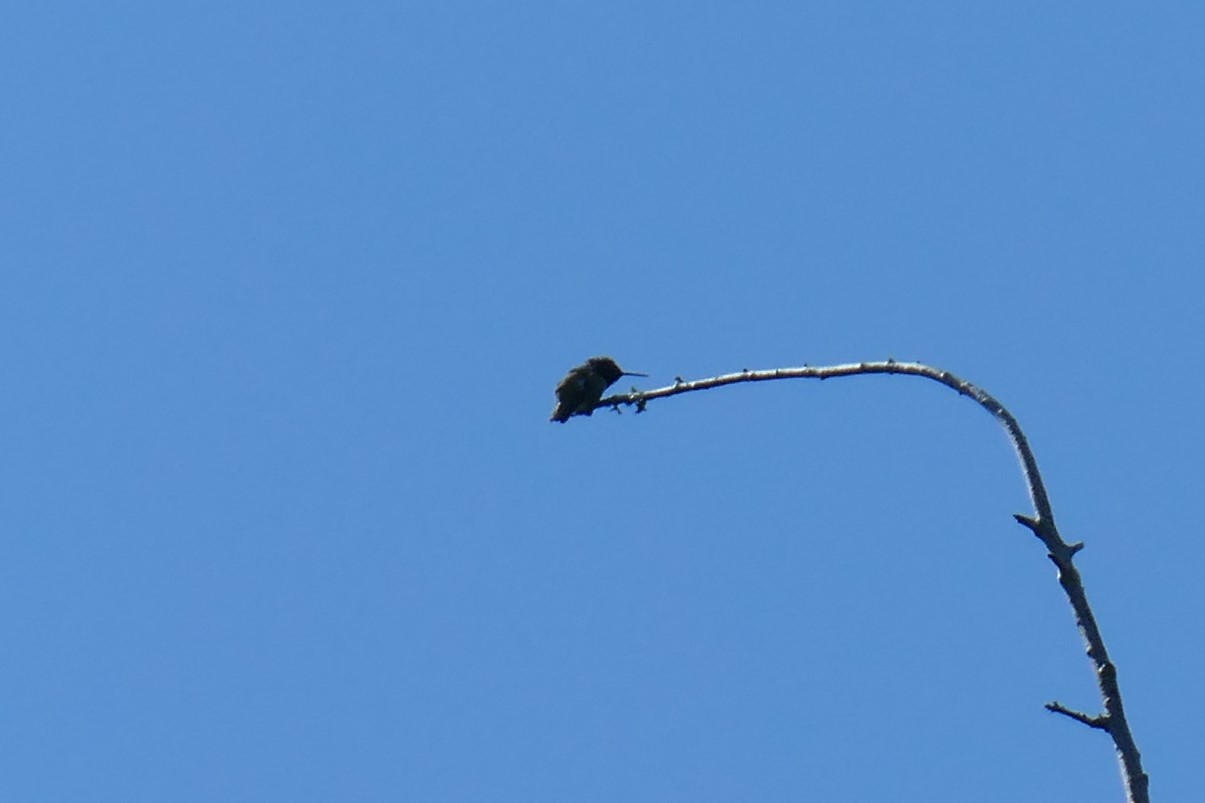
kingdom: Animalia
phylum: Chordata
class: Aves
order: Apodiformes
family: Trochilidae
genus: Calypte
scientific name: Calypte anna
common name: Anna's hummingbird
